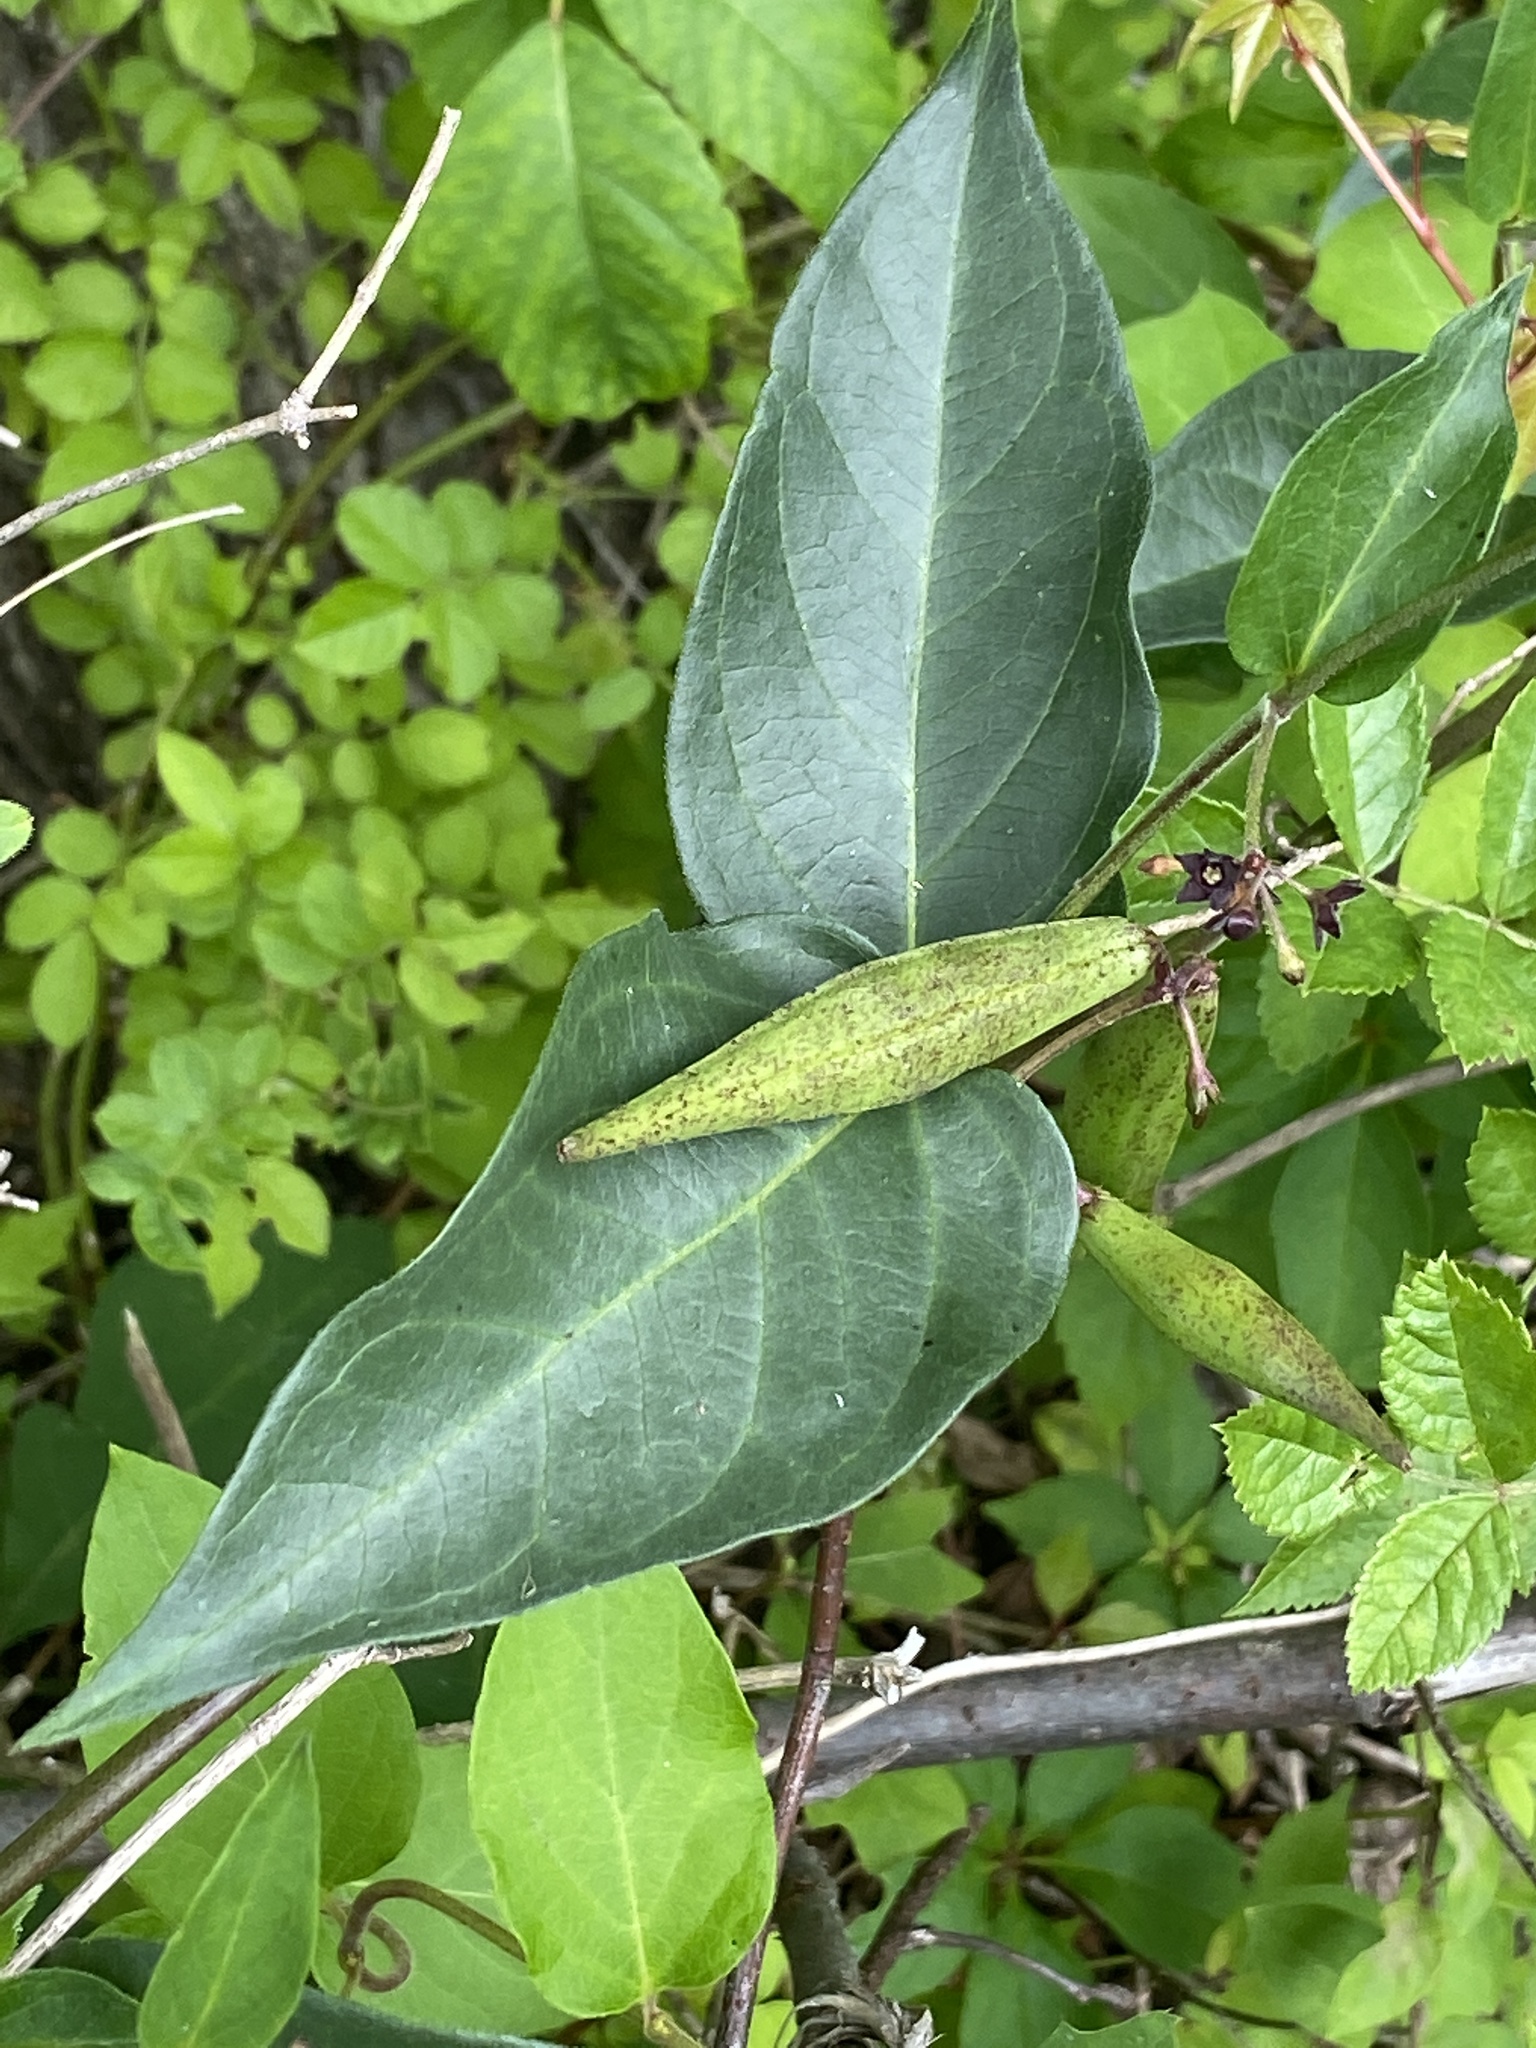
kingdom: Plantae
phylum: Tracheophyta
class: Magnoliopsida
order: Gentianales
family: Apocynaceae
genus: Vincetoxicum
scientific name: Vincetoxicum nigrum
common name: Black swallow-wort
